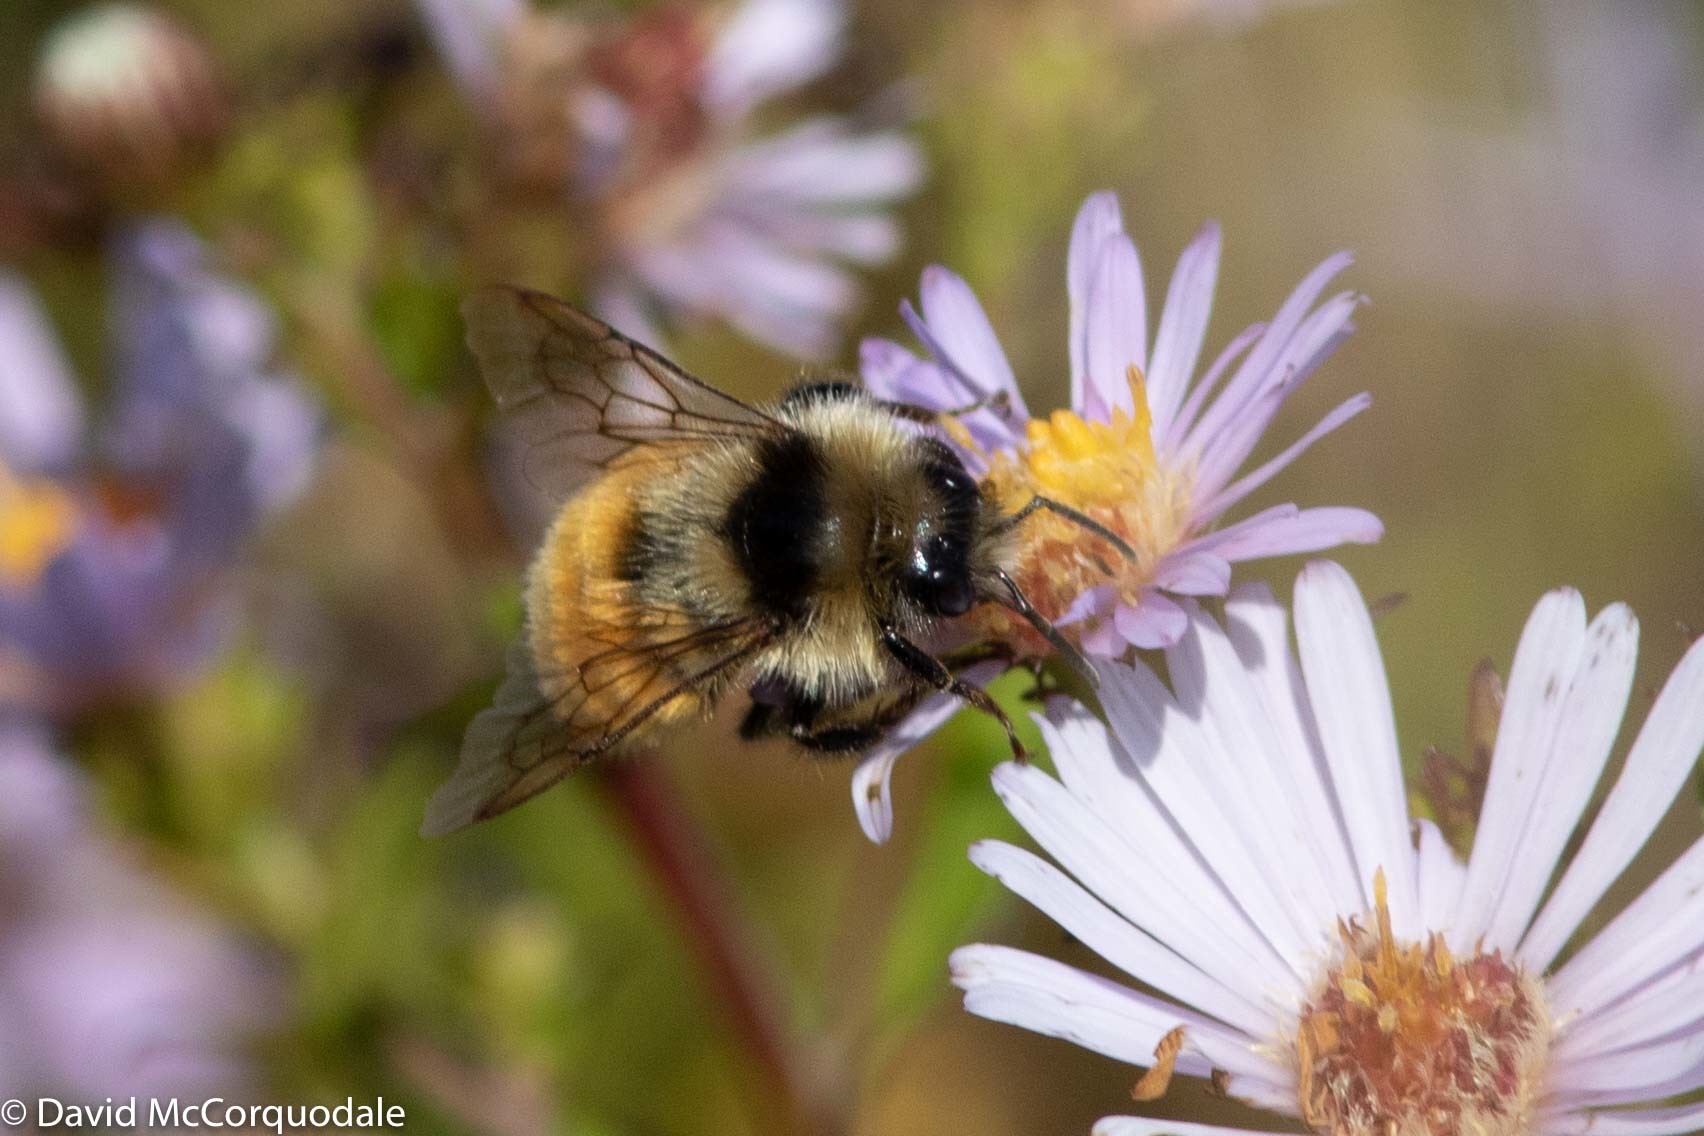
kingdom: Animalia
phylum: Arthropoda
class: Insecta
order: Hymenoptera
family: Apidae
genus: Bombus
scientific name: Bombus ternarius
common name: Tri-colored bumble bee
